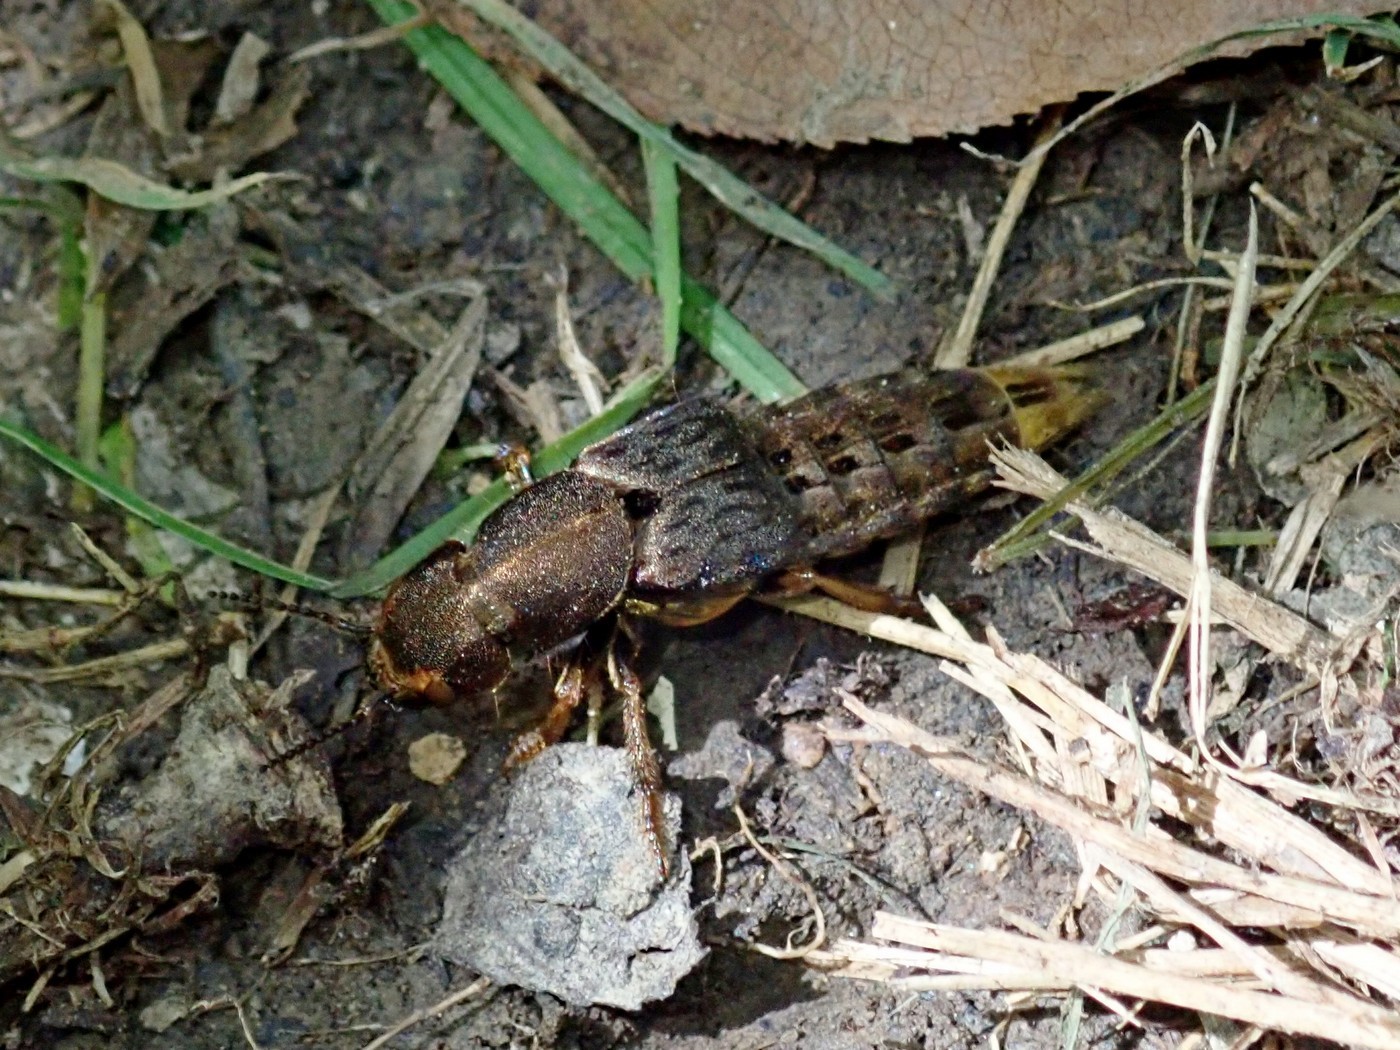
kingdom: Animalia
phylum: Arthropoda
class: Insecta
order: Coleoptera
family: Staphylinidae
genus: Platydracus
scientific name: Platydracus maculosus
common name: Brown rove beetle
